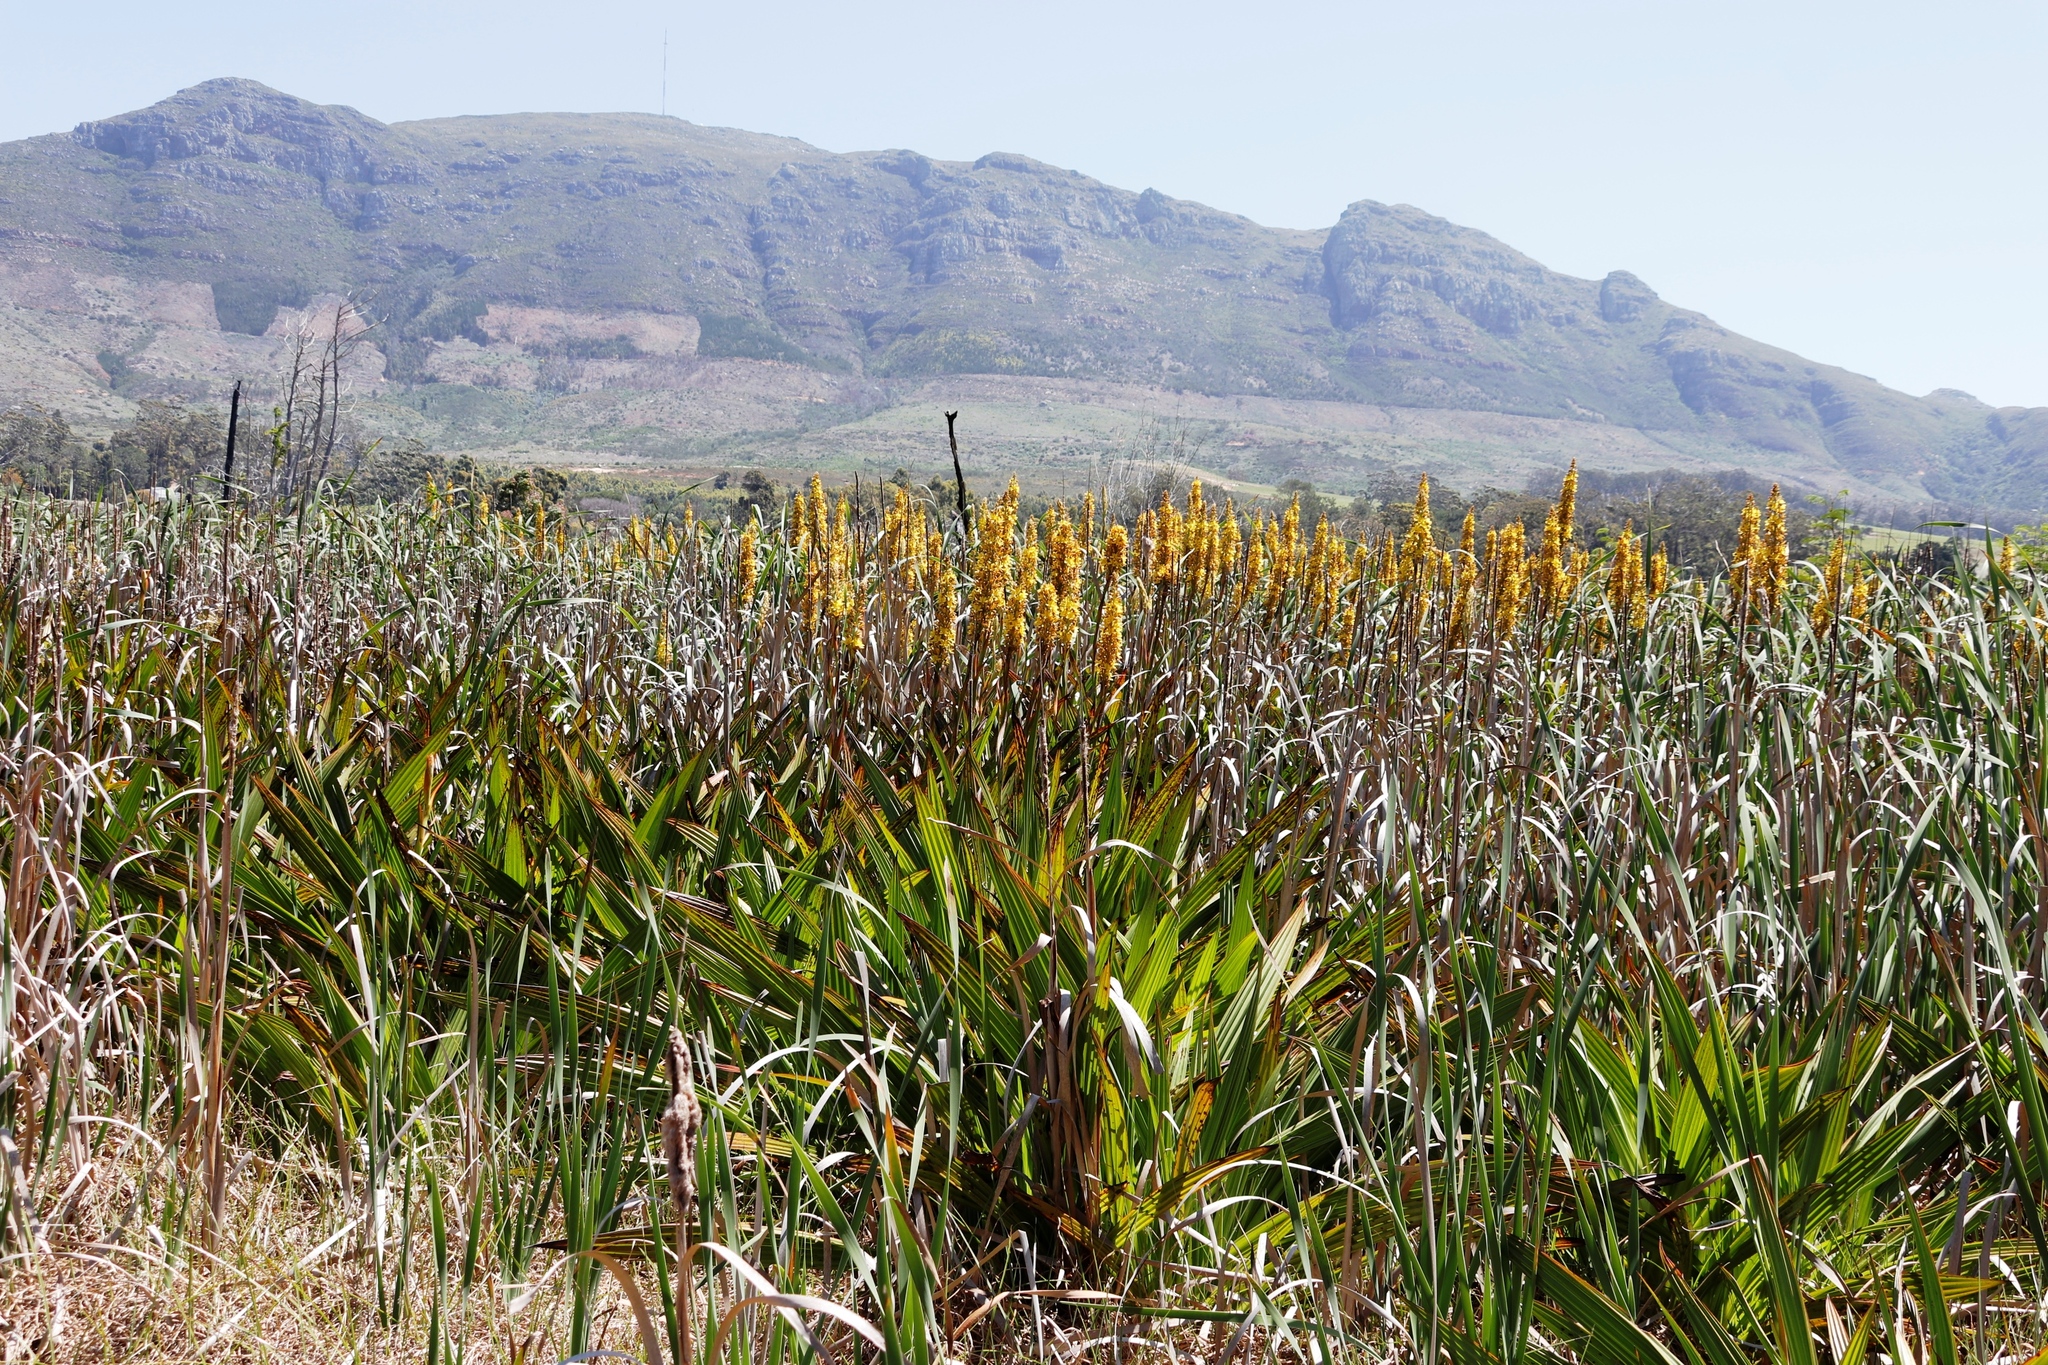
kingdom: Plantae
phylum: Tracheophyta
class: Liliopsida
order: Commelinales
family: Haemodoraceae
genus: Wachendorfia
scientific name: Wachendorfia thyrsiflora
